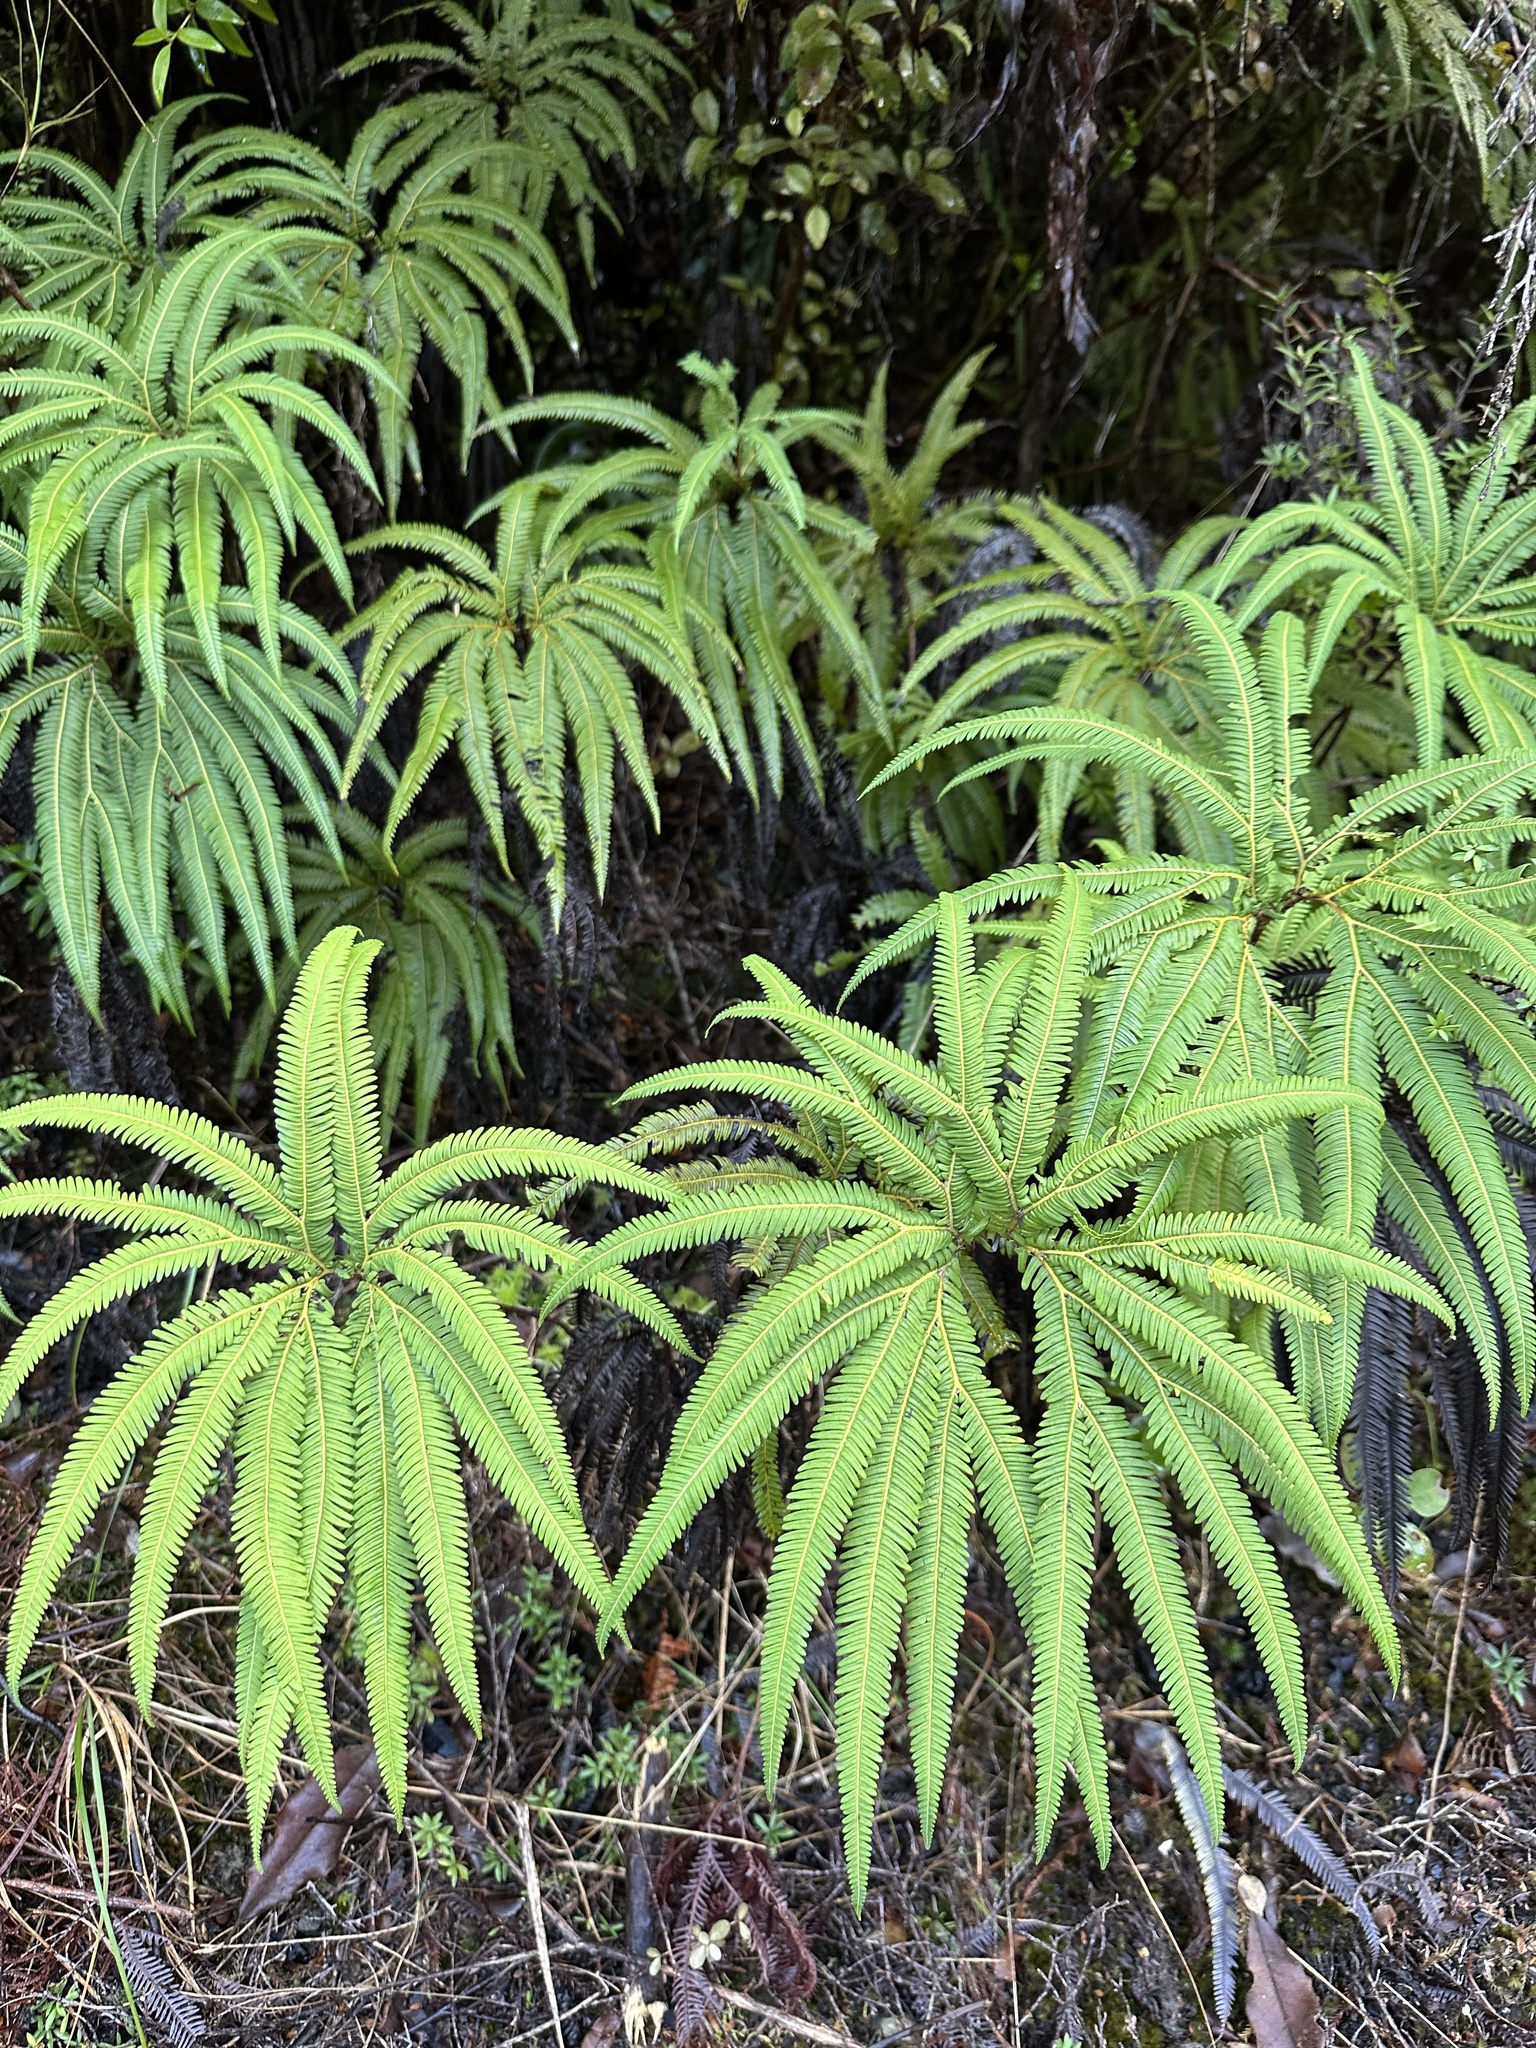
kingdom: Plantae
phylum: Tracheophyta
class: Polypodiopsida
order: Gleicheniales
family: Gleicheniaceae
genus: Sticherus
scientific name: Sticherus cunninghamii
